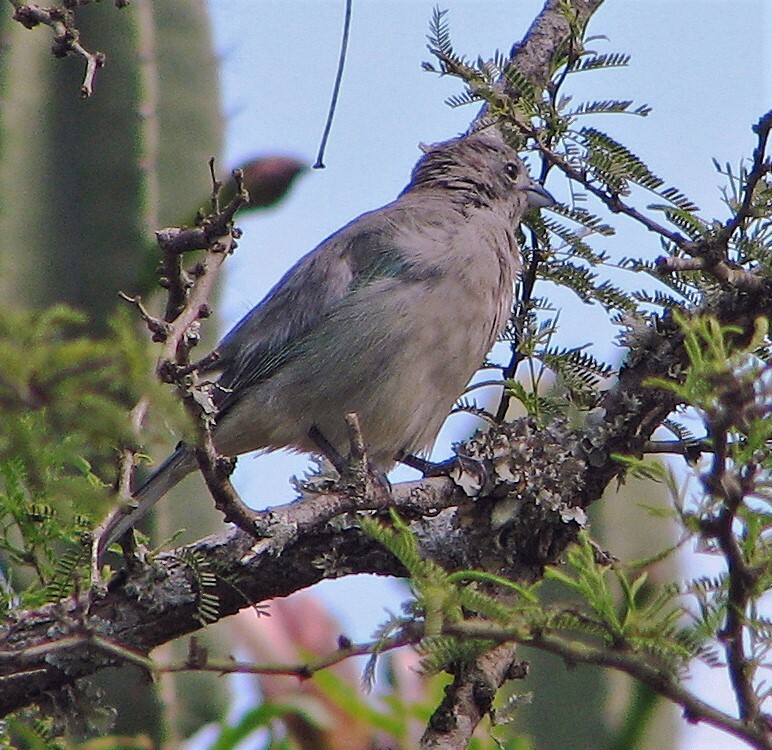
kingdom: Animalia
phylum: Chordata
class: Aves
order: Passeriformes
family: Thraupidae
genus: Thraupis
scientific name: Thraupis sayaca
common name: Sayaca tanager
